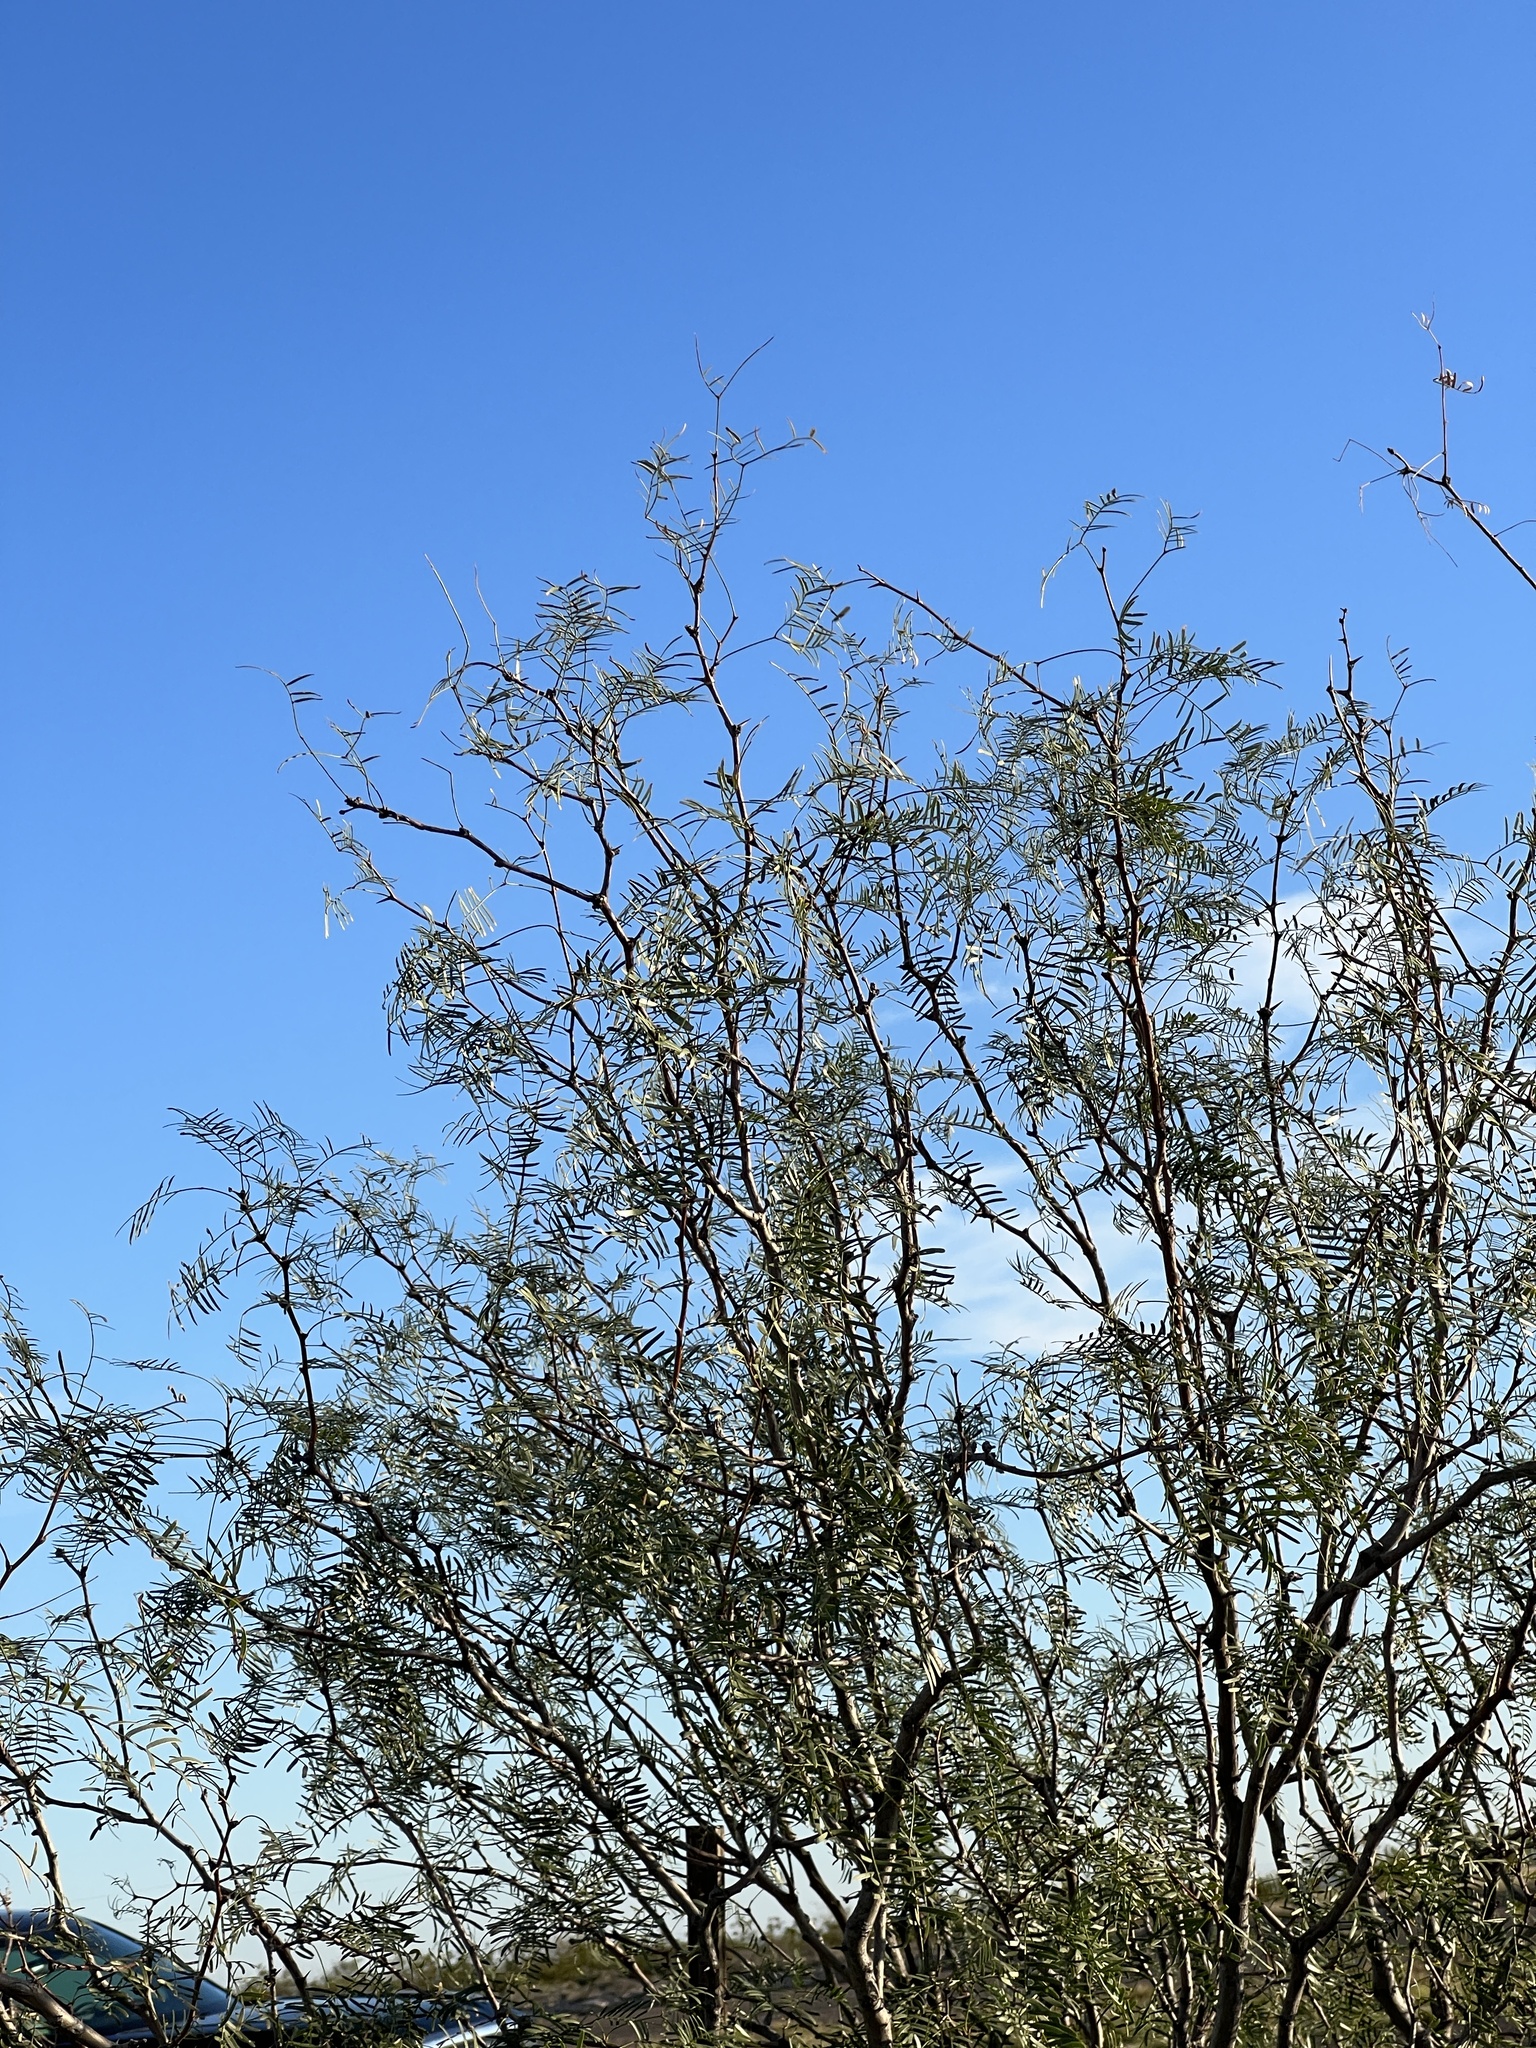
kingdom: Plantae
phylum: Tracheophyta
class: Magnoliopsida
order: Fabales
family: Fabaceae
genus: Prosopis
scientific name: Prosopis pubescens
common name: Screw-bean
